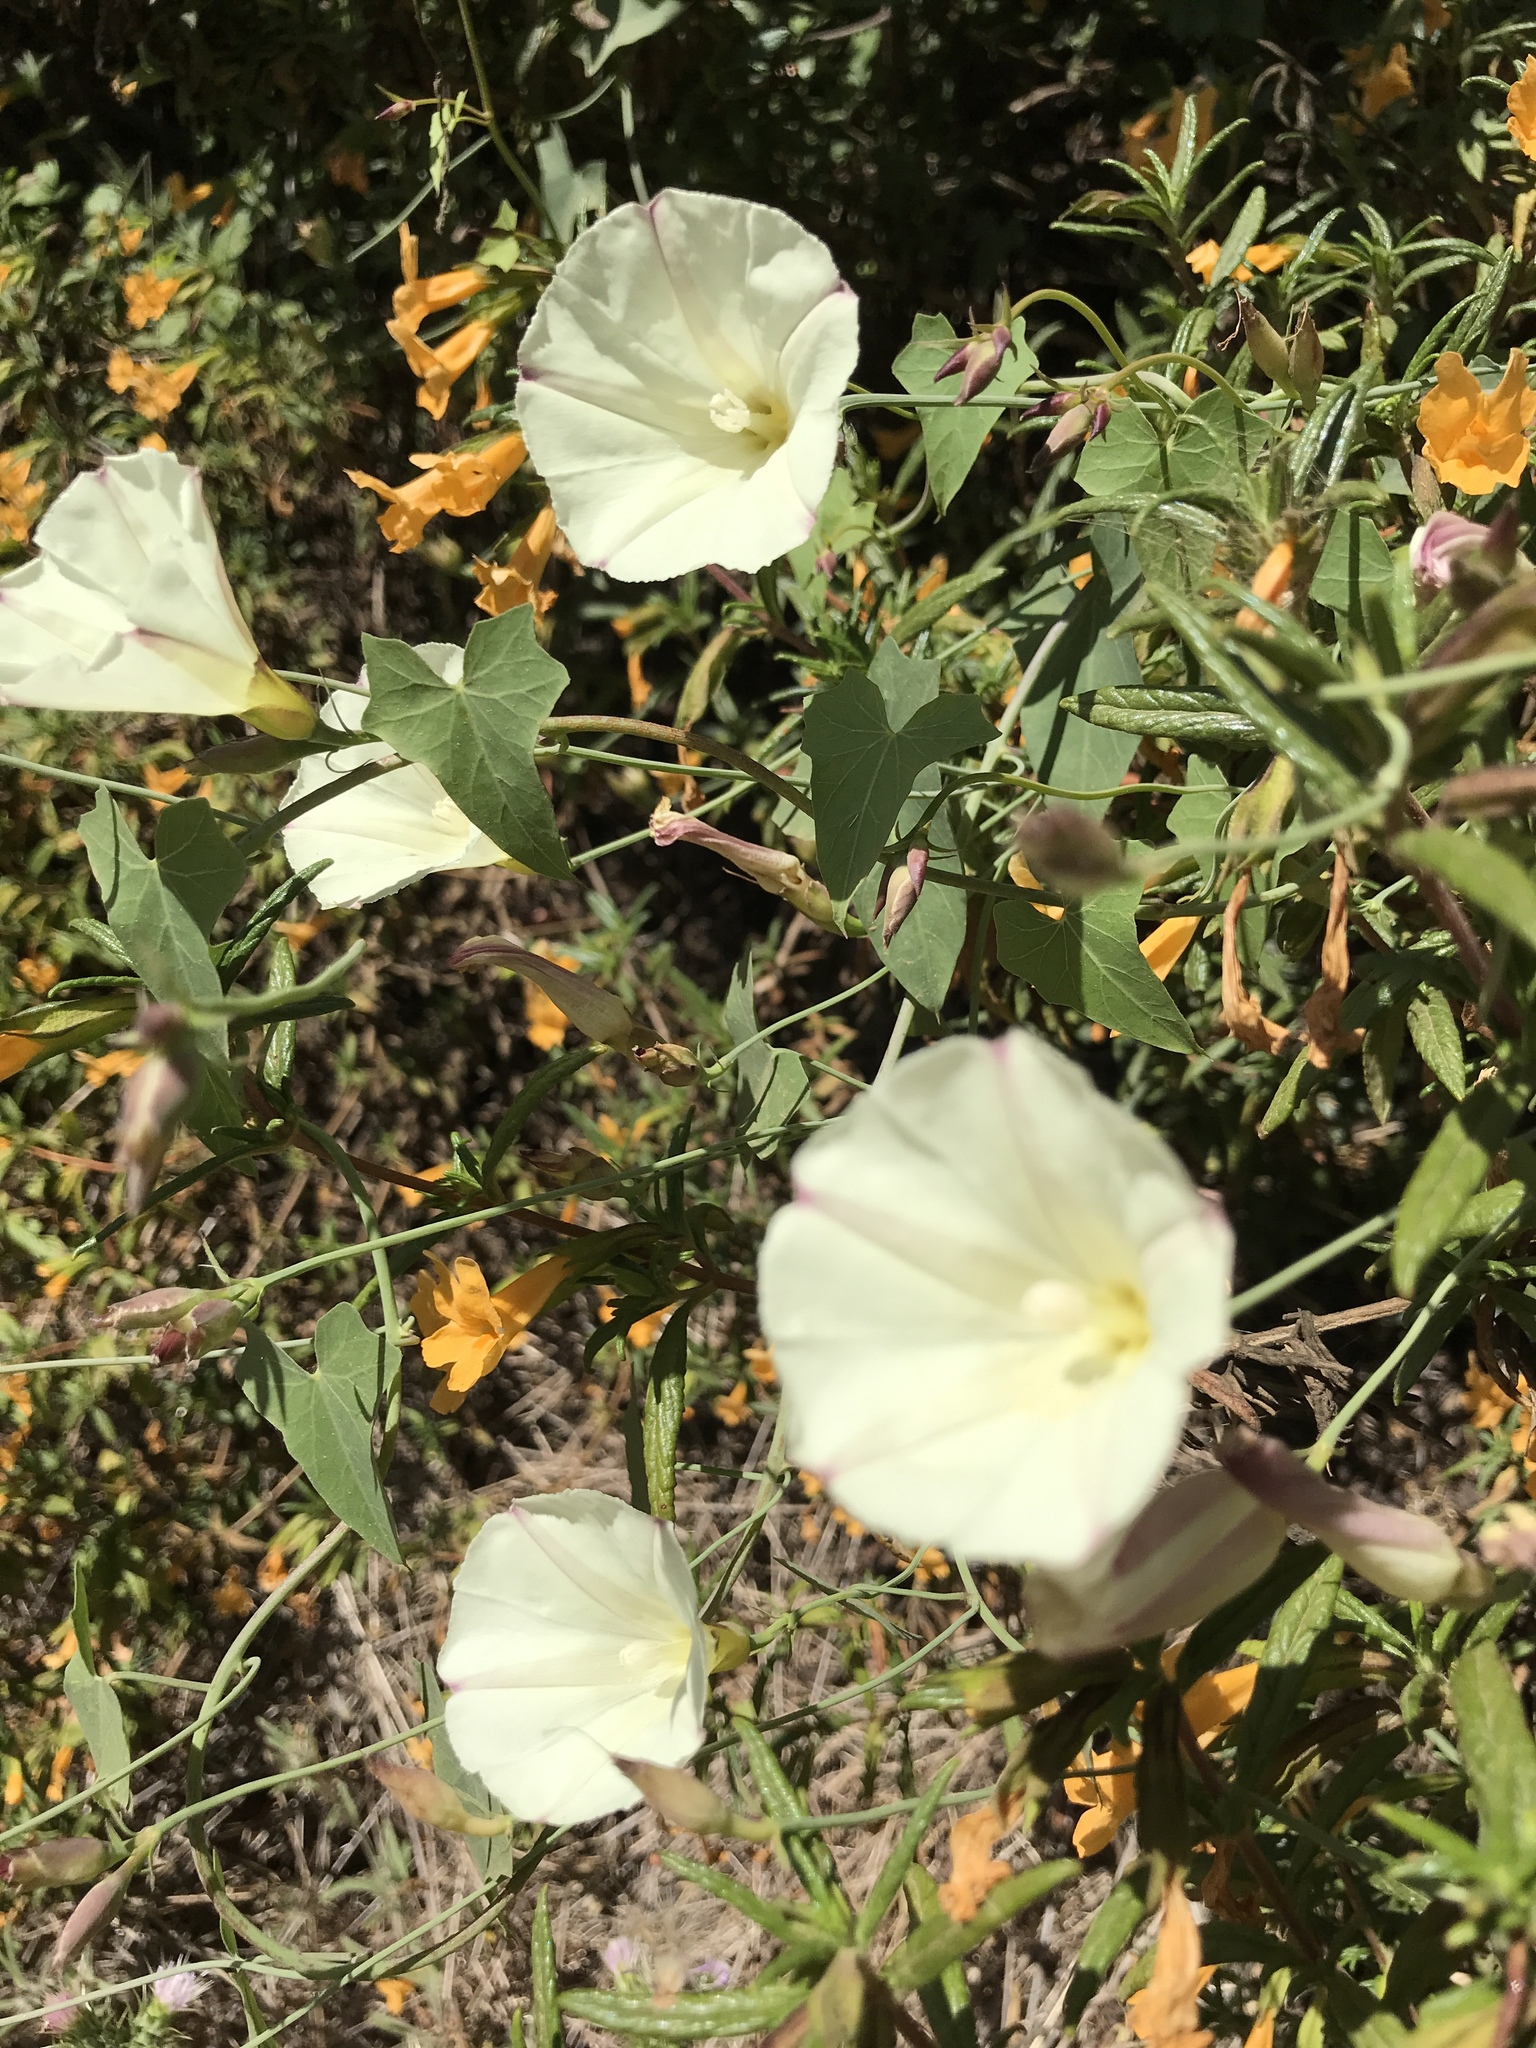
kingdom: Plantae
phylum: Tracheophyta
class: Magnoliopsida
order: Solanales
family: Convolvulaceae
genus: Calystegia
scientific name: Calystegia purpurata
